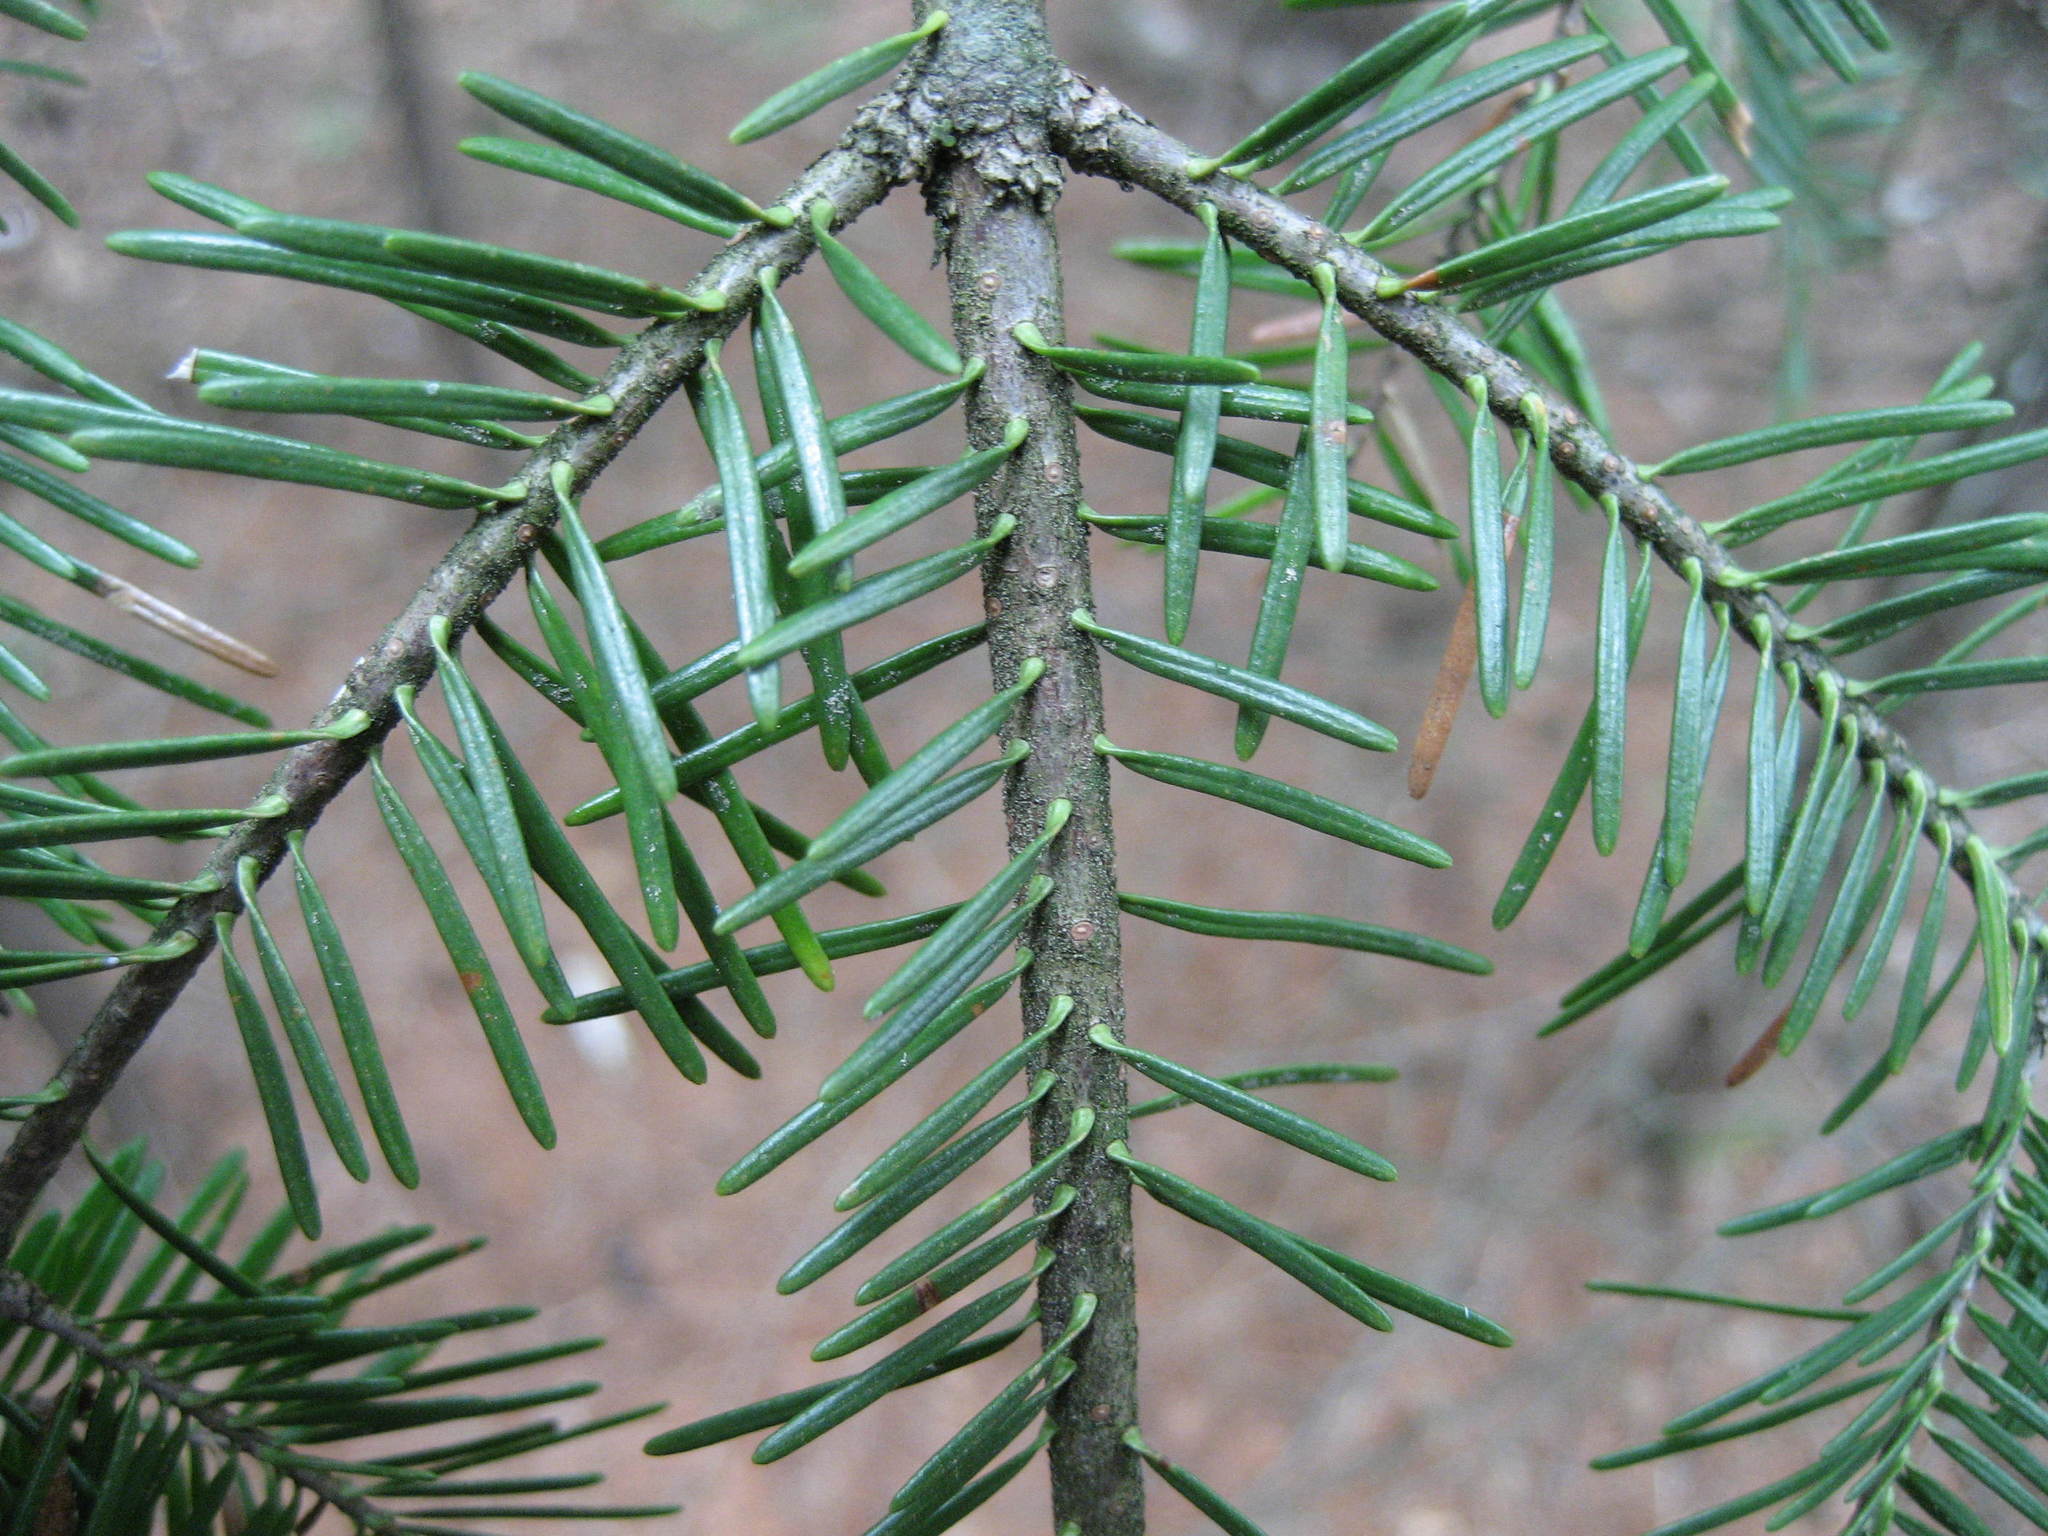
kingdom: Plantae
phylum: Tracheophyta
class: Pinopsida
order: Pinales
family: Pinaceae
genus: Abies
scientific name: Abies balsamea
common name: Balsam fir
